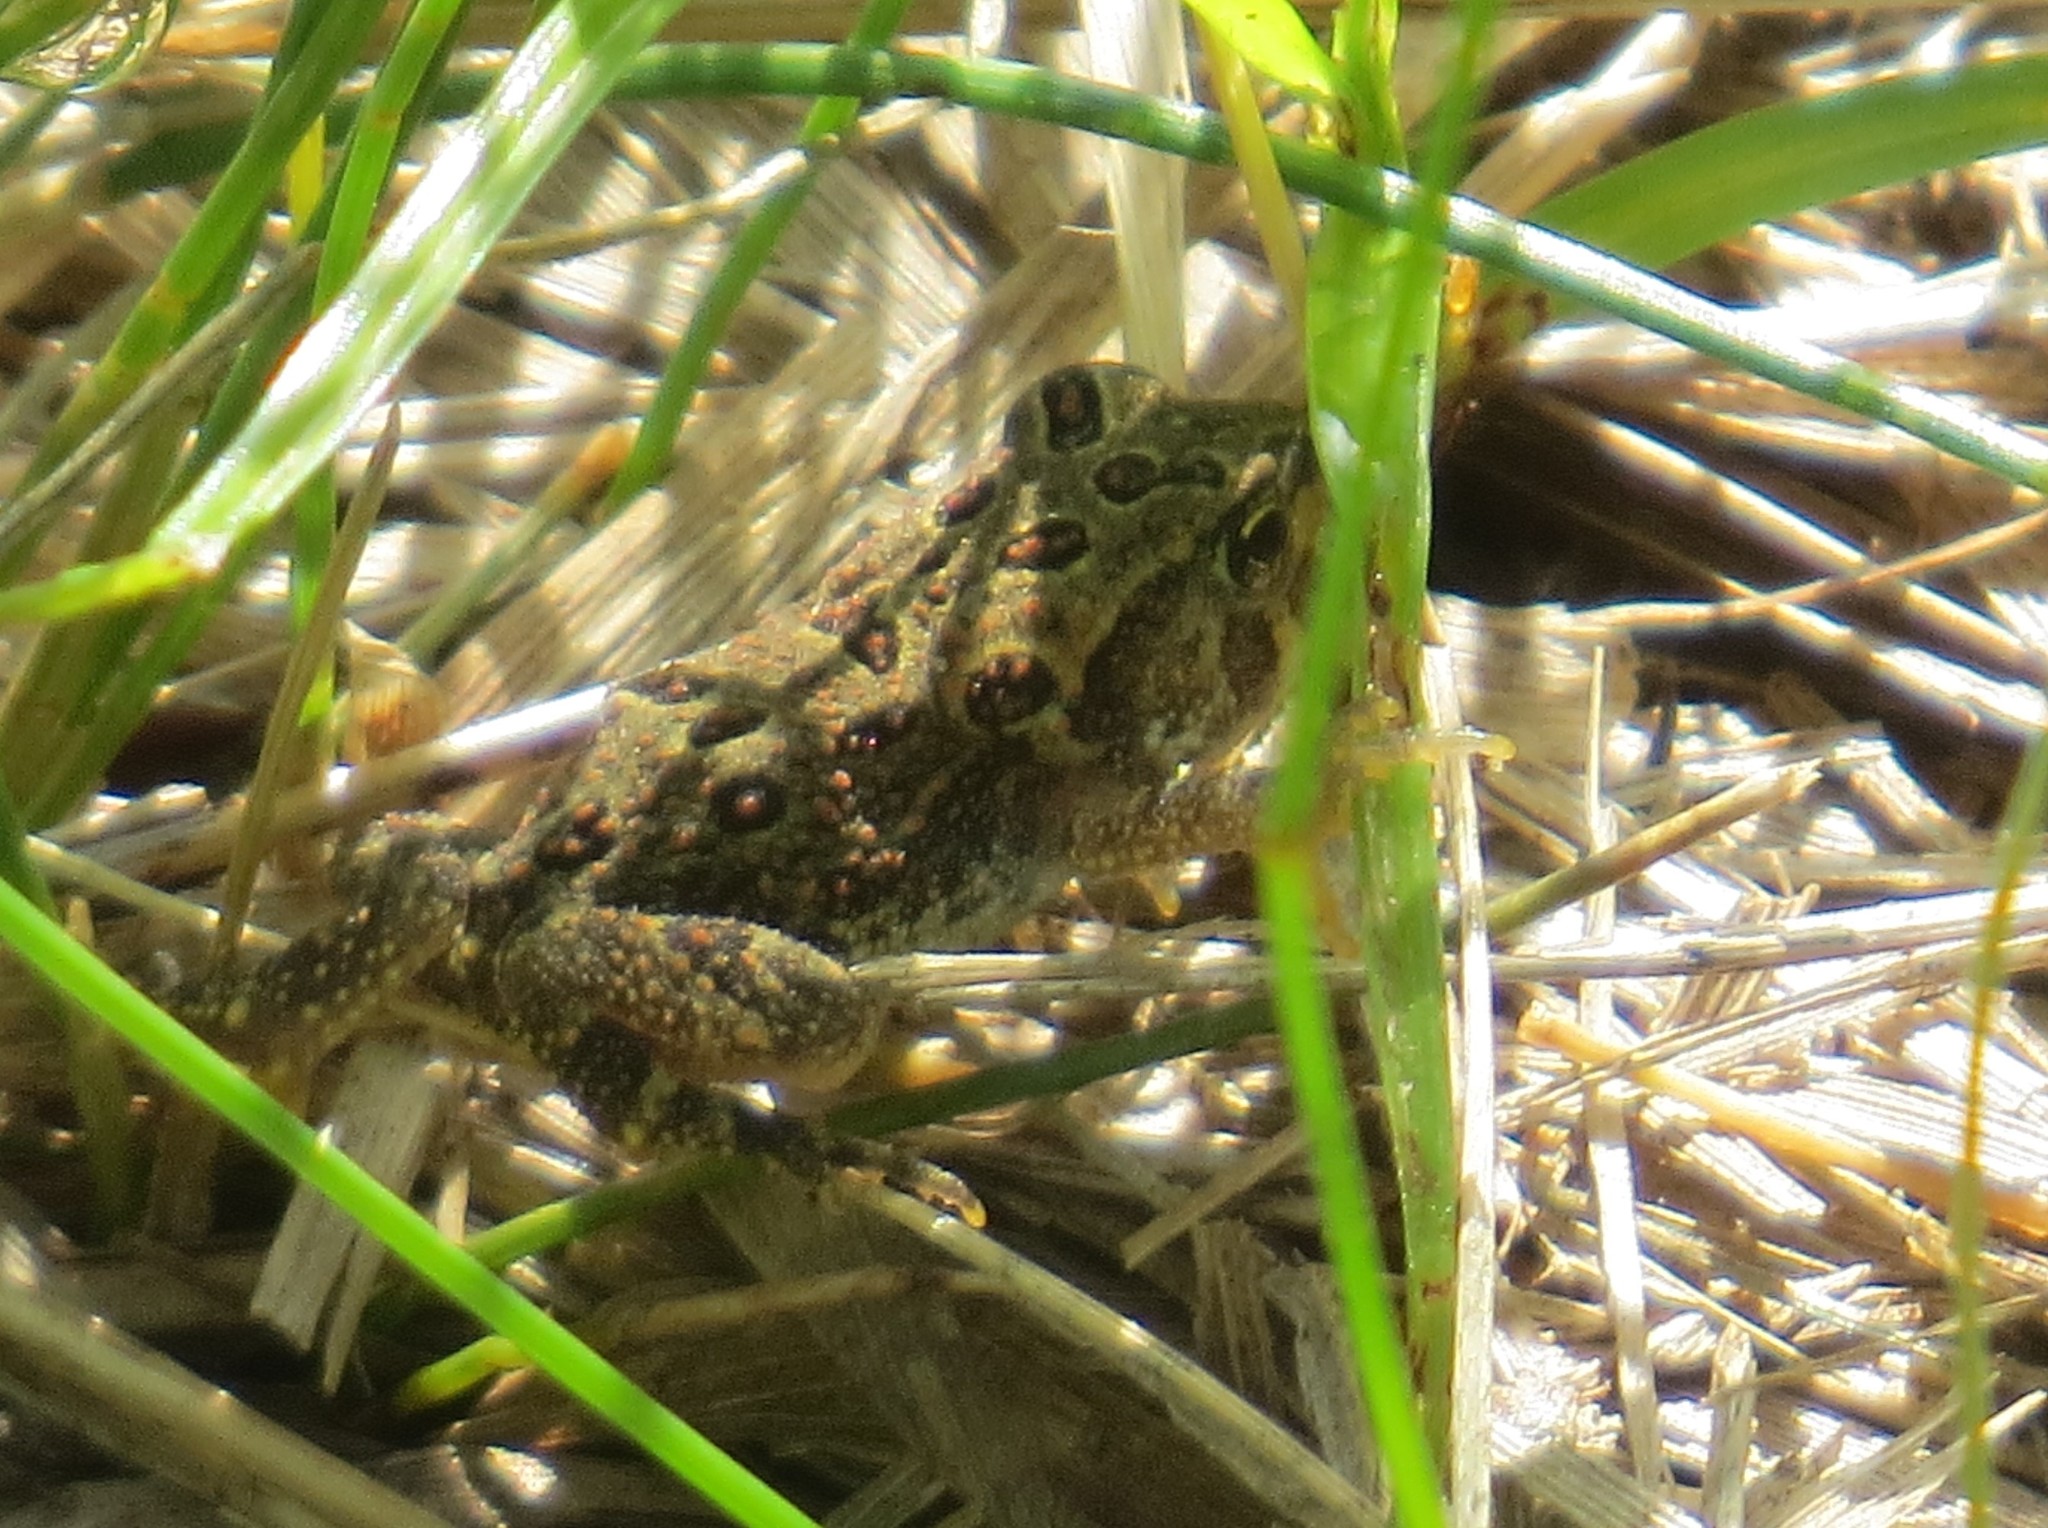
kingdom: Animalia
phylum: Chordata
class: Amphibia
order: Anura
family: Bufonidae
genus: Anaxyrus
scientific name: Anaxyrus americanus
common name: American toad
